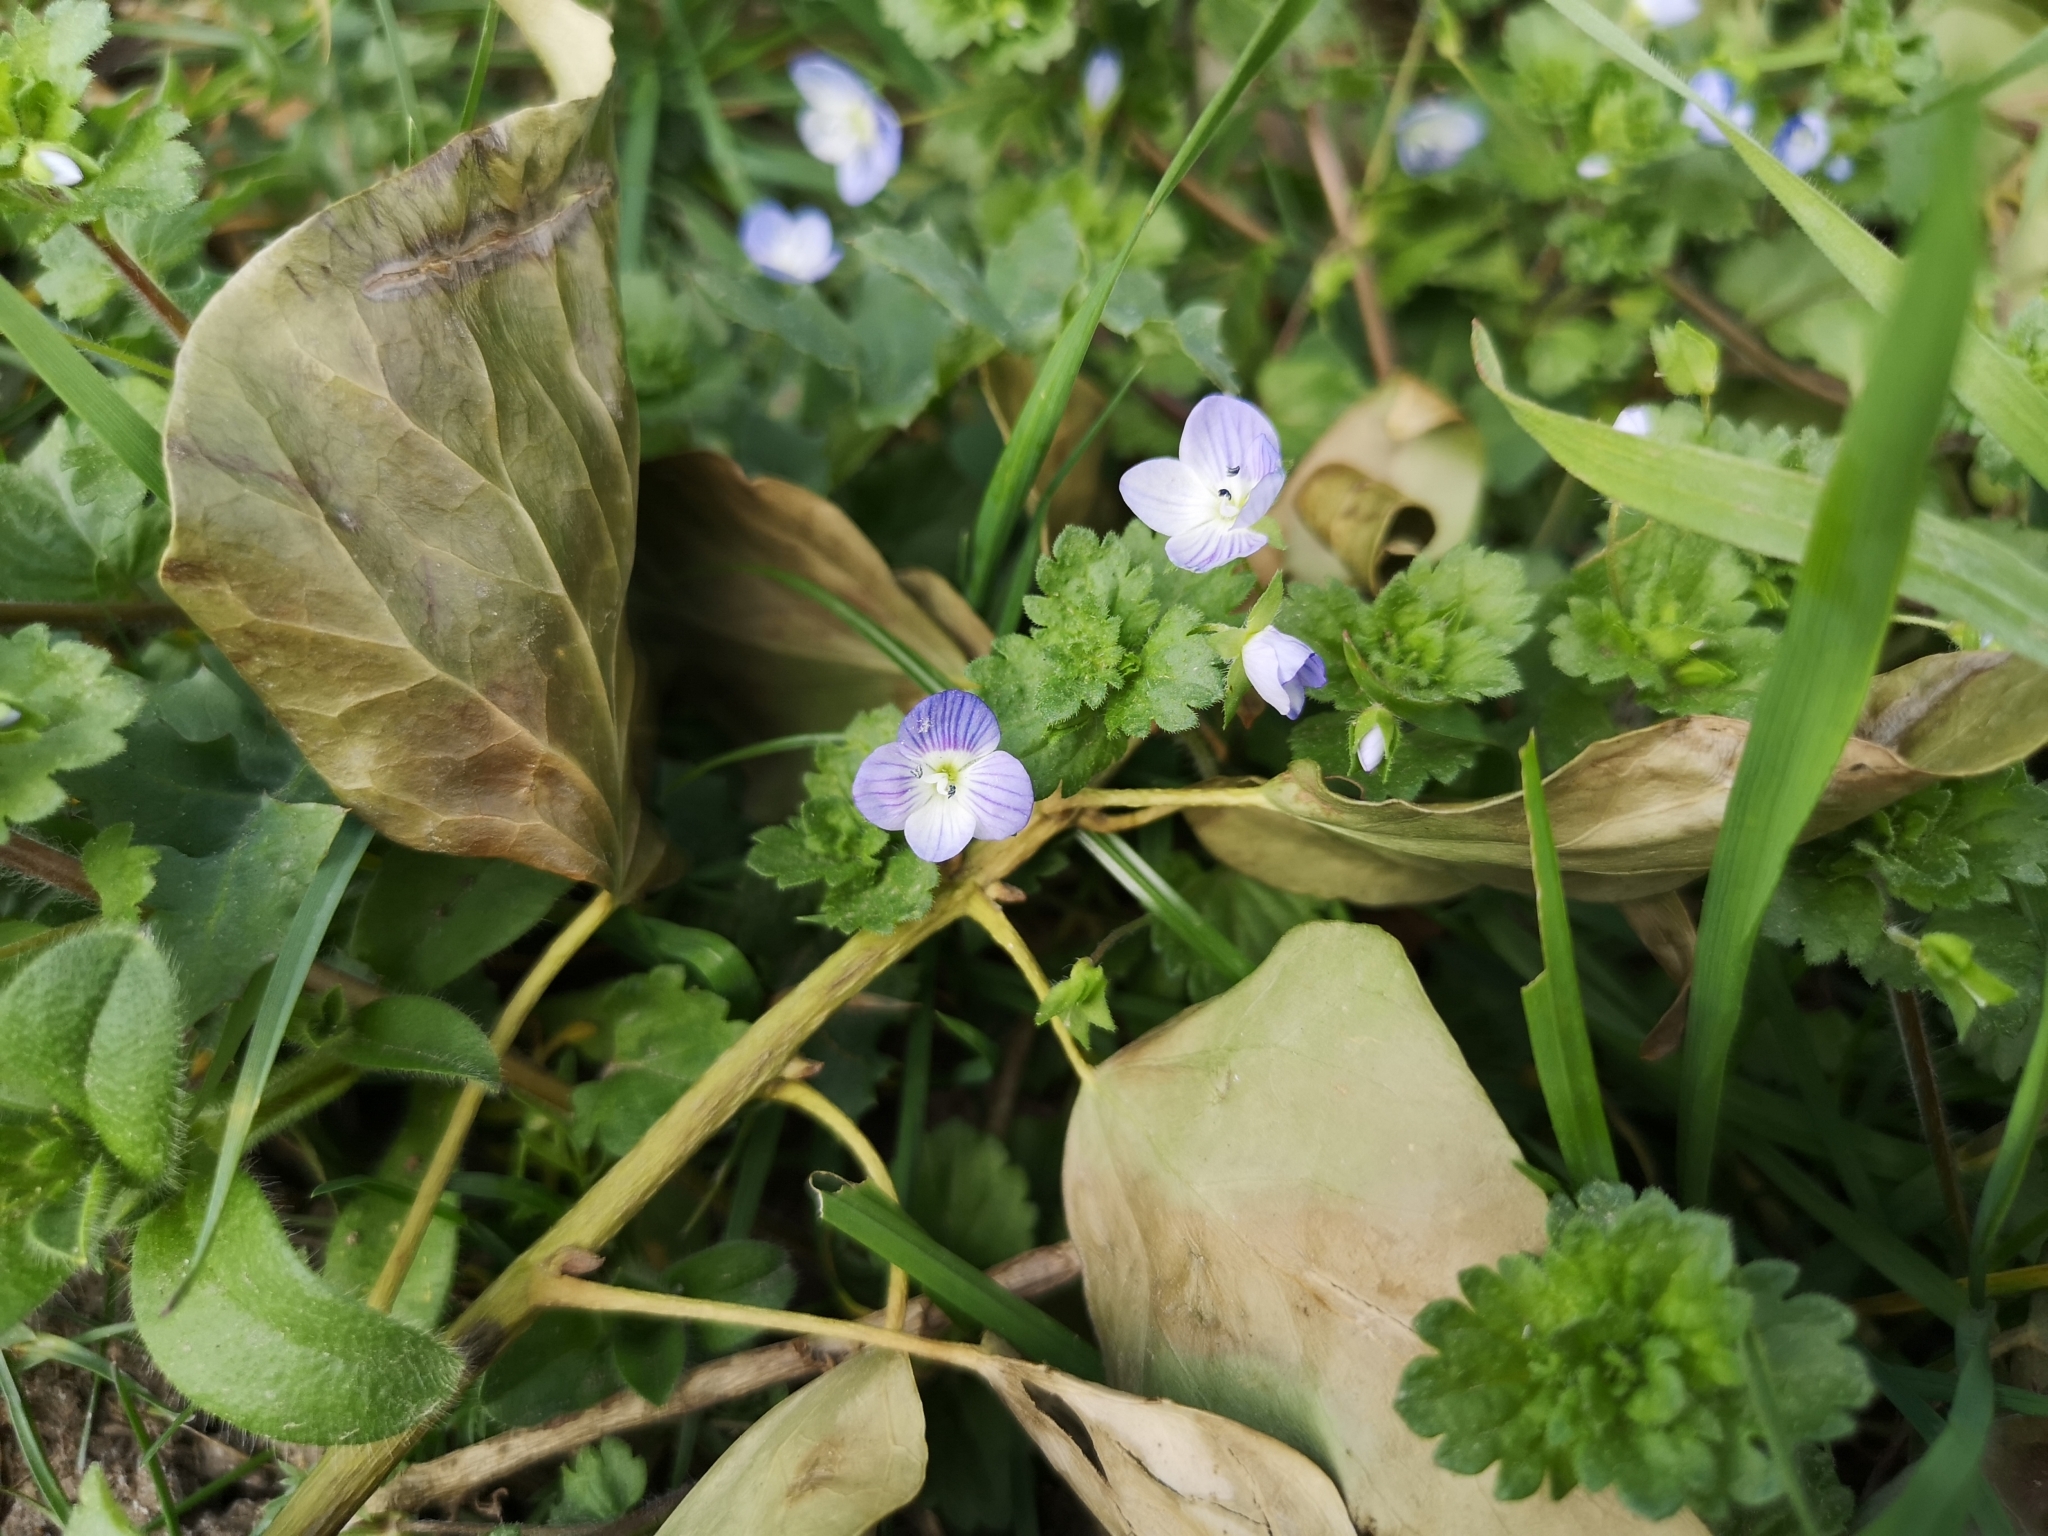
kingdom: Plantae
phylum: Tracheophyta
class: Magnoliopsida
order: Lamiales
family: Plantaginaceae
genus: Veronica
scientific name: Veronica persica
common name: Common field-speedwell
